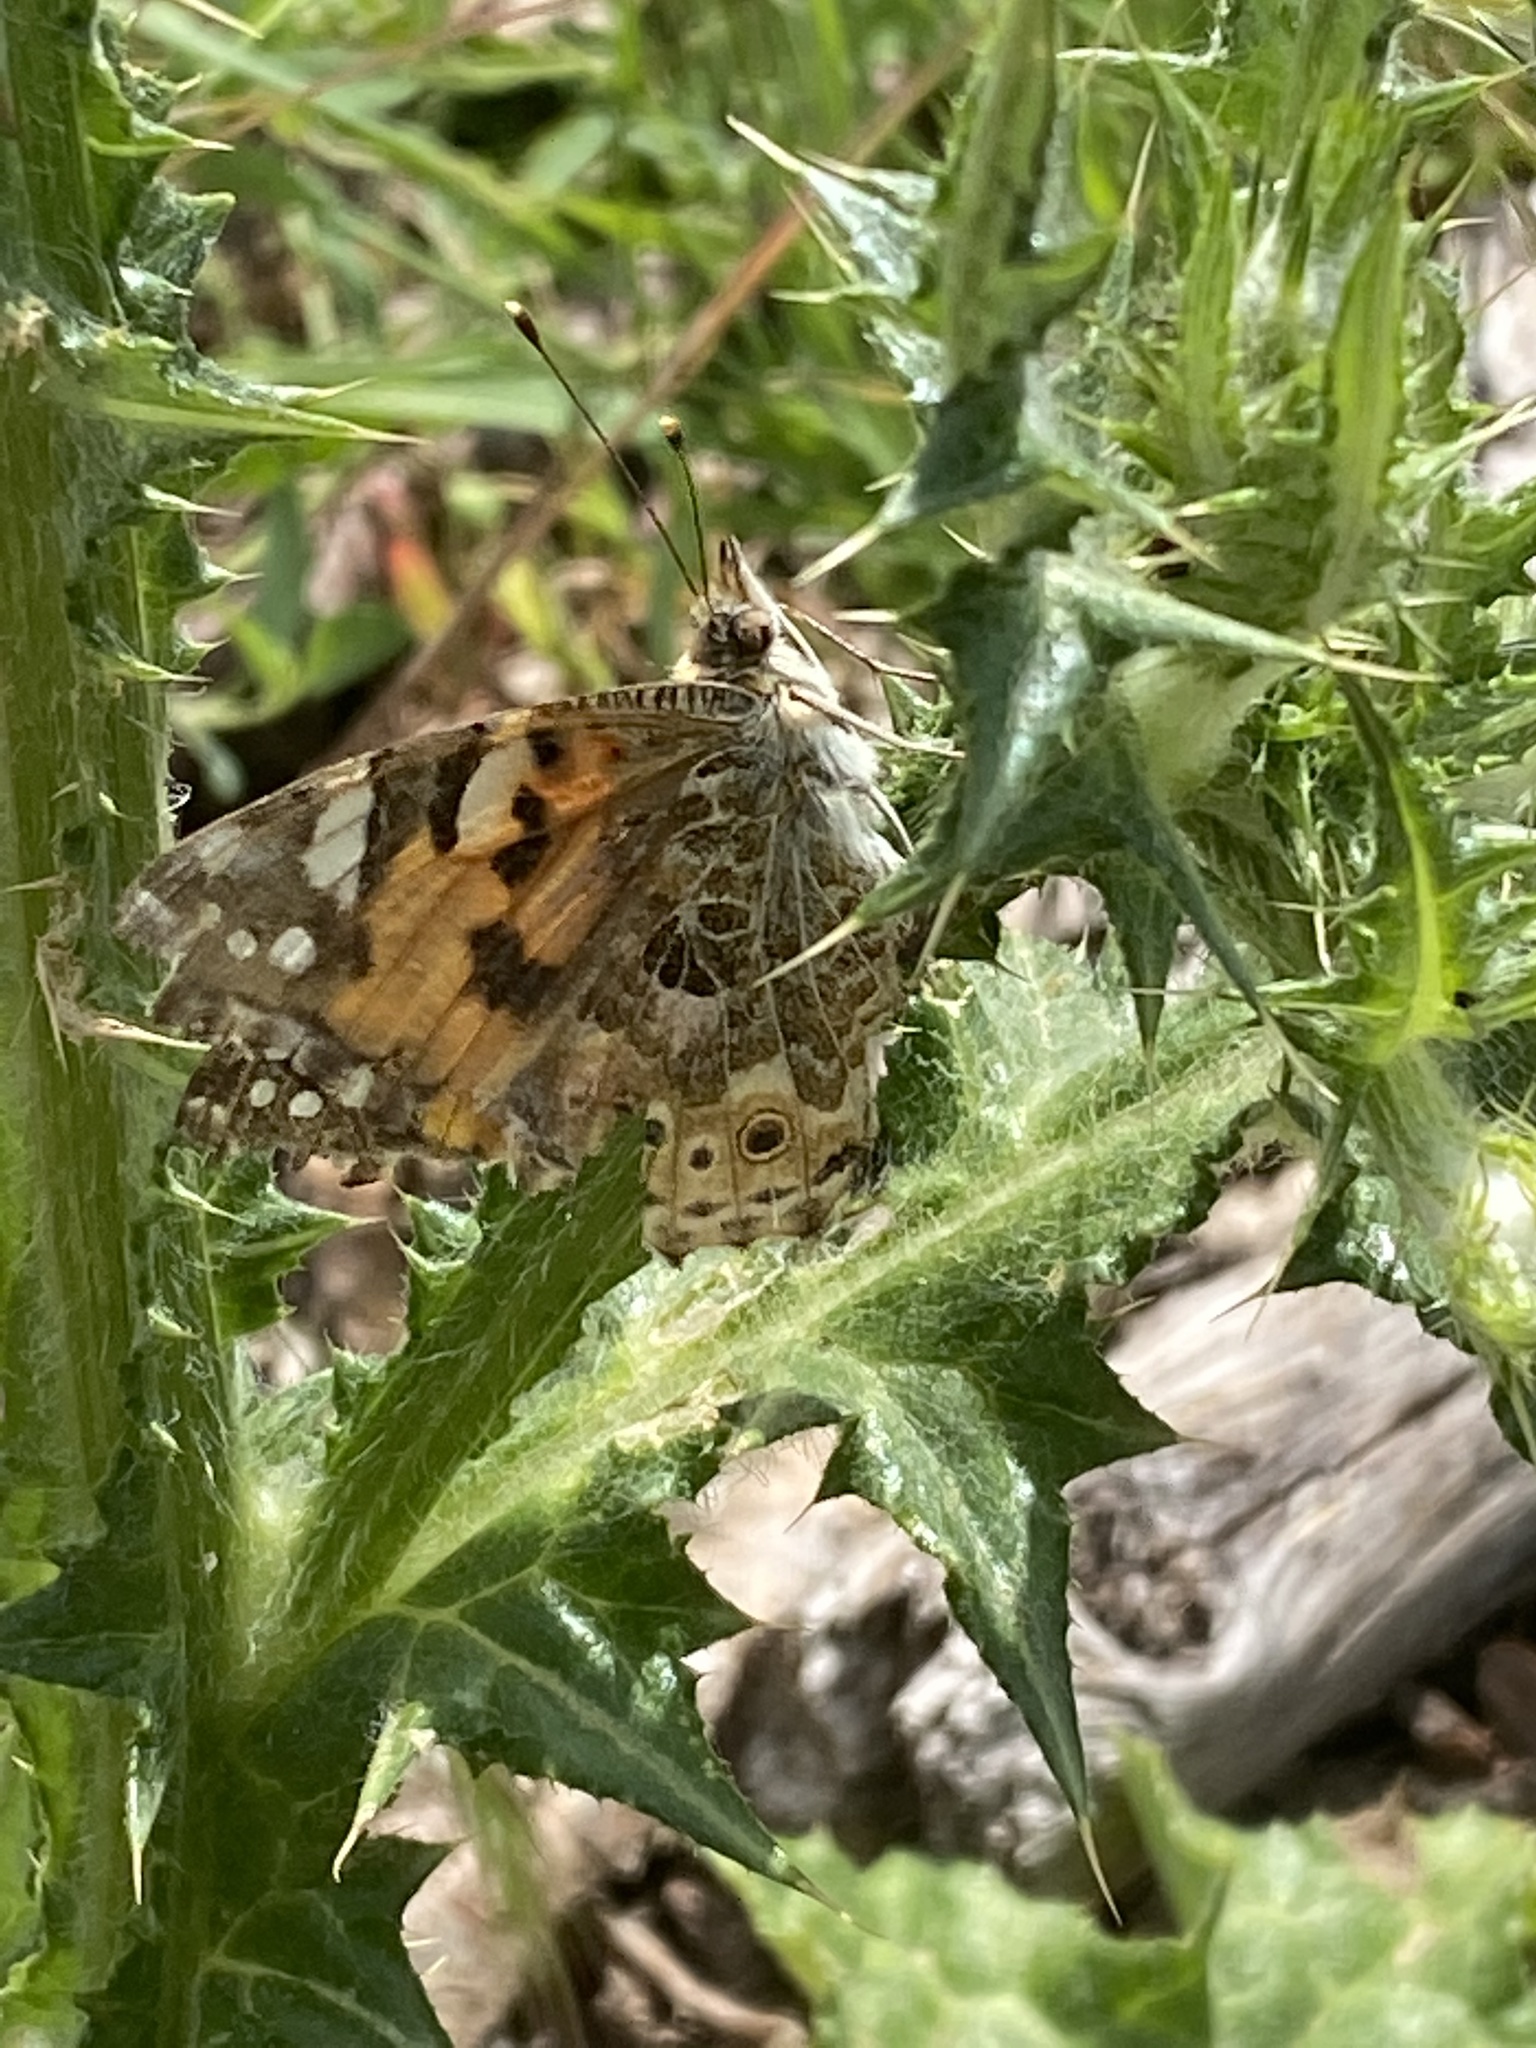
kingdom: Animalia
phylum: Arthropoda
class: Insecta
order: Lepidoptera
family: Nymphalidae
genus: Vanessa
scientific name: Vanessa cardui
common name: Painted lady
